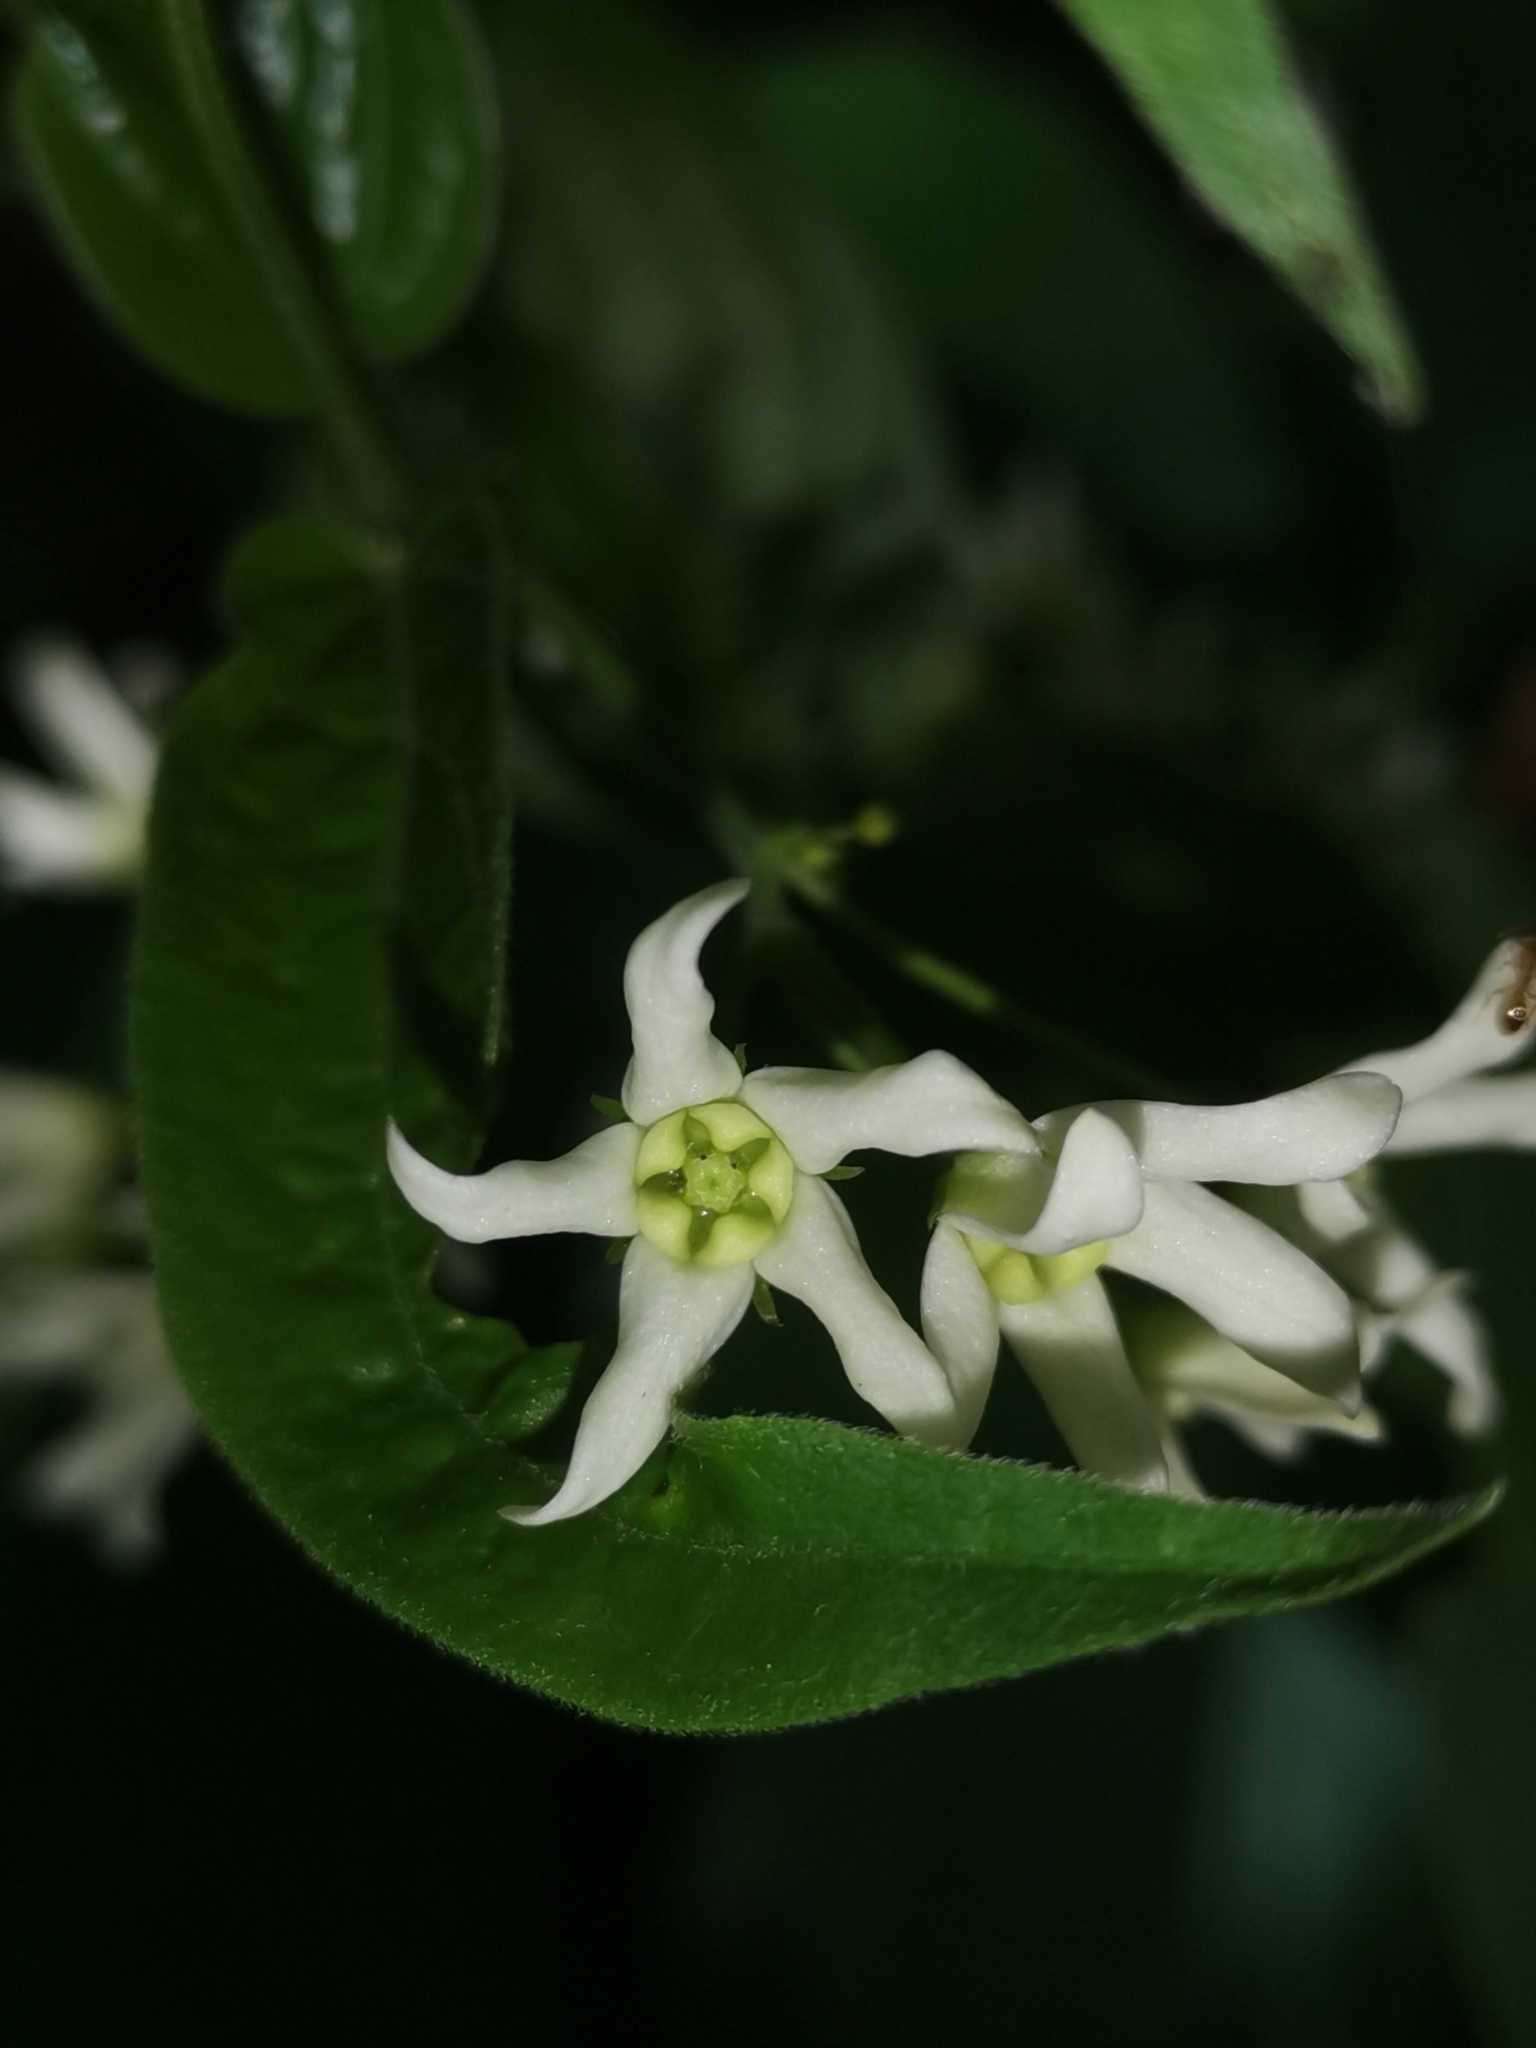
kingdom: Plantae
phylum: Tracheophyta
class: Magnoliopsida
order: Gentianales
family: Apocynaceae
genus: Vincetoxicum
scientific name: Vincetoxicum hirundinaria
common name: White swallowwort
